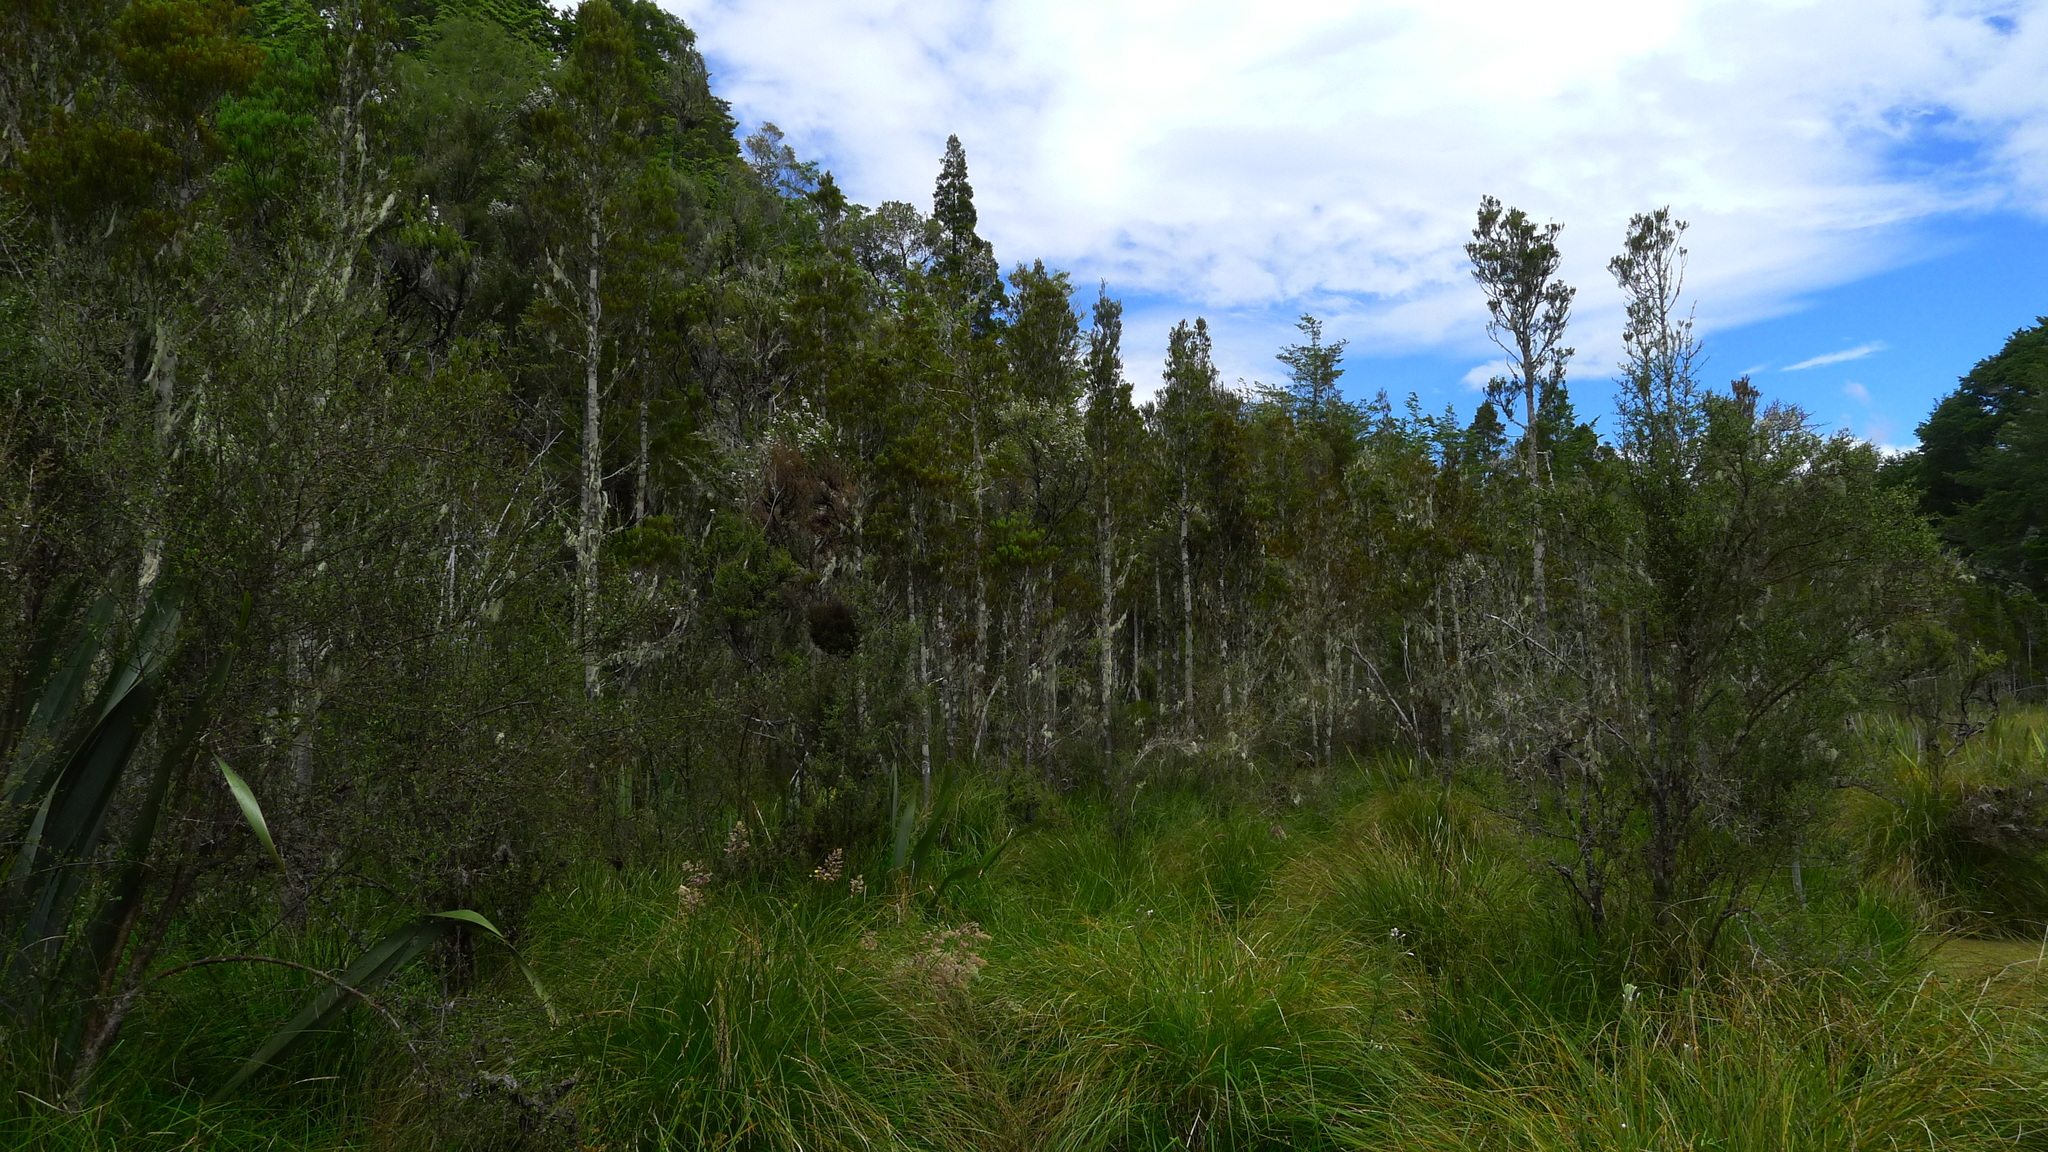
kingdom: Plantae
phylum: Tracheophyta
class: Pinopsida
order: Pinales
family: Podocarpaceae
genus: Dacrycarpus
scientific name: Dacrycarpus dacrydioides
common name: White pine
